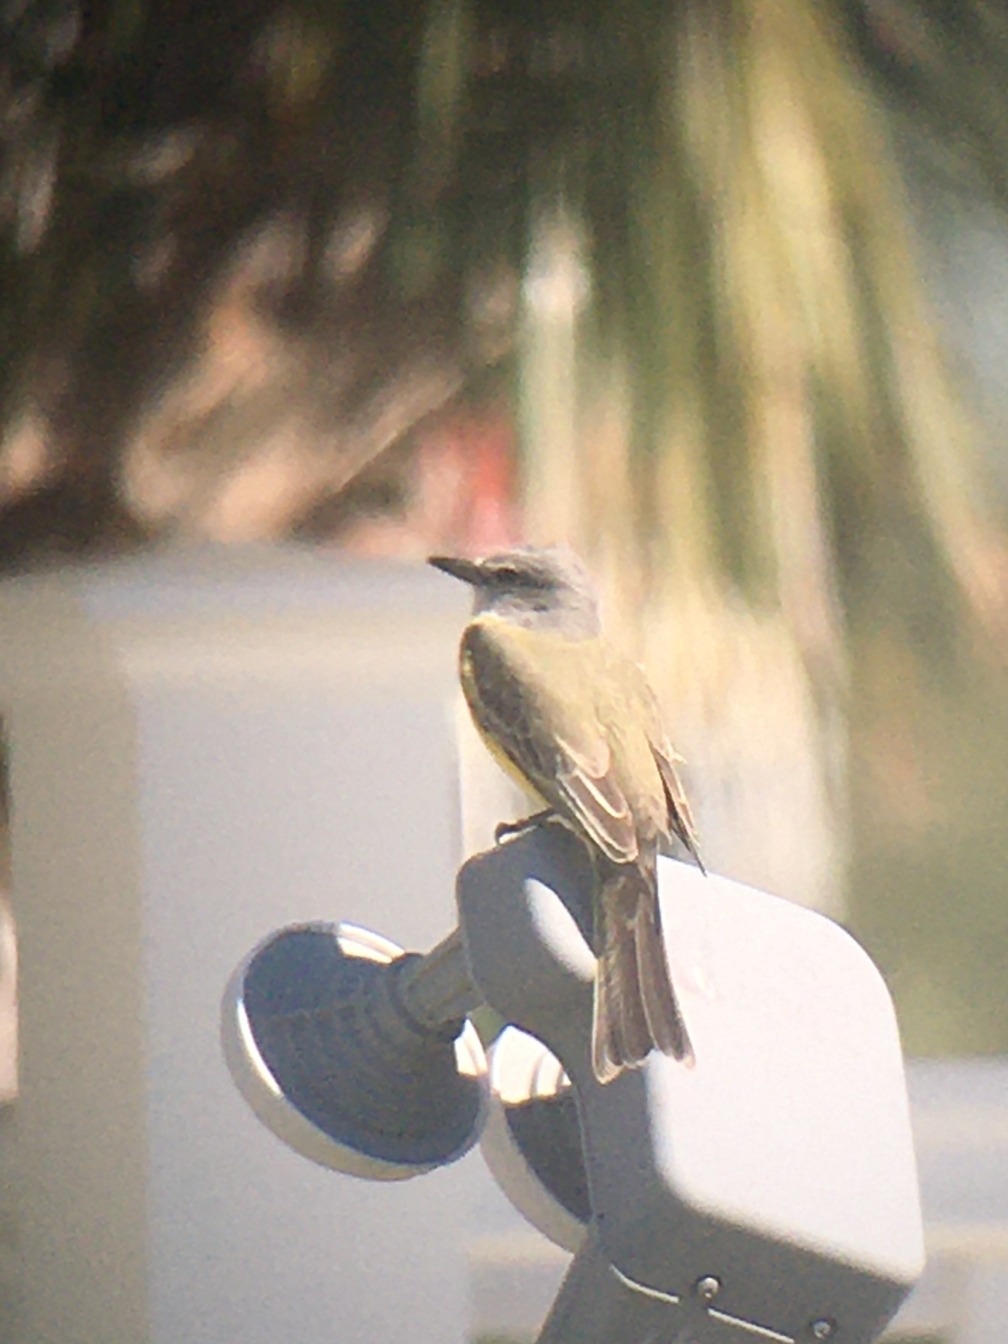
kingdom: Animalia
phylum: Chordata
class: Aves
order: Passeriformes
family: Tyrannidae
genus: Tyrannus
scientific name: Tyrannus melancholicus
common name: Tropical kingbird
